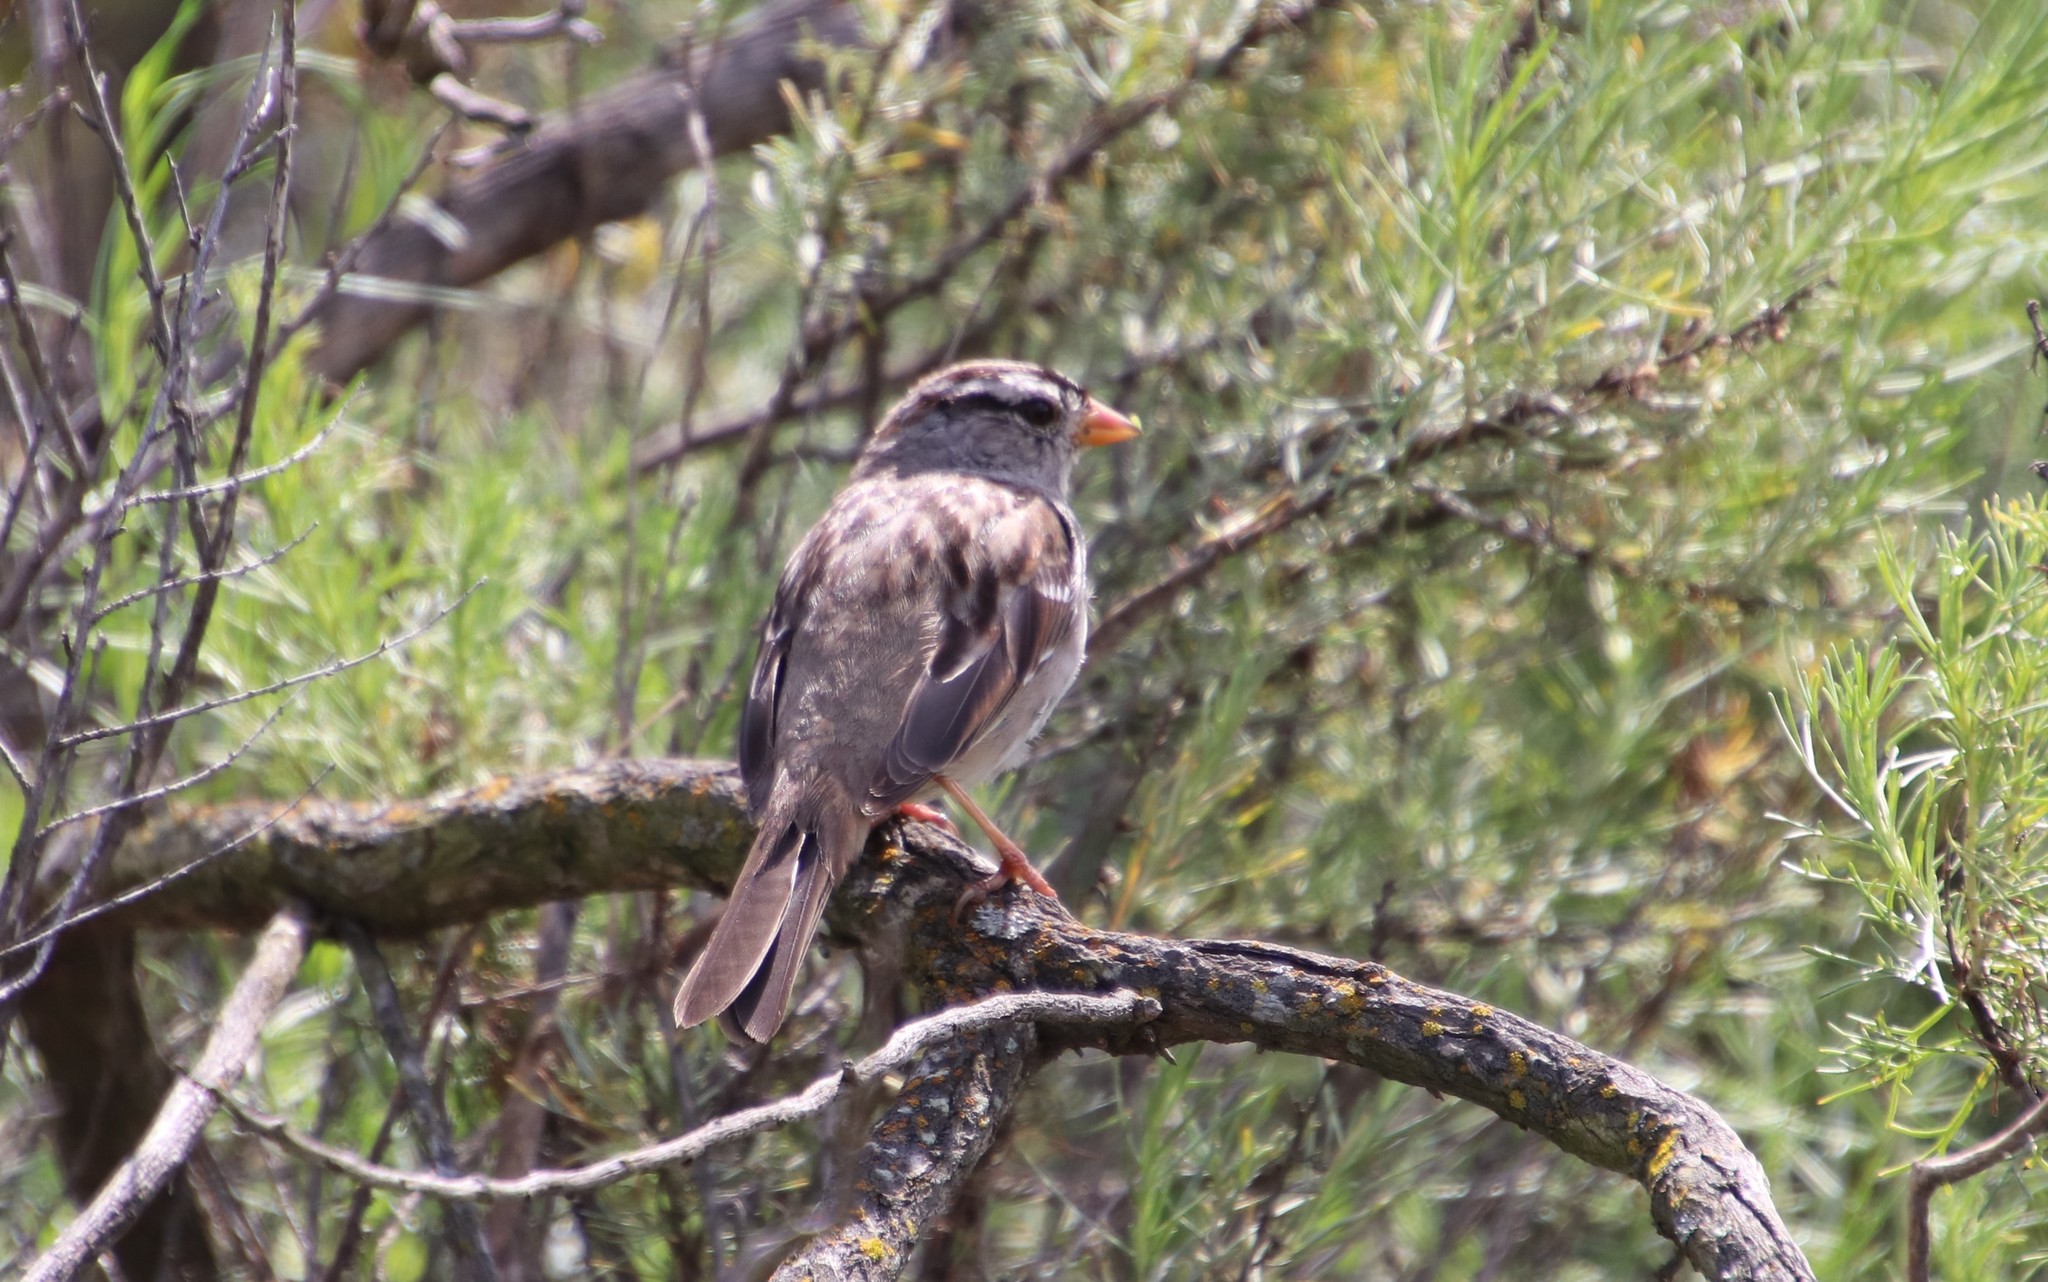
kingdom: Animalia
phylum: Chordata
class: Aves
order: Passeriformes
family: Passerellidae
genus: Zonotrichia
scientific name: Zonotrichia leucophrys
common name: White-crowned sparrow
